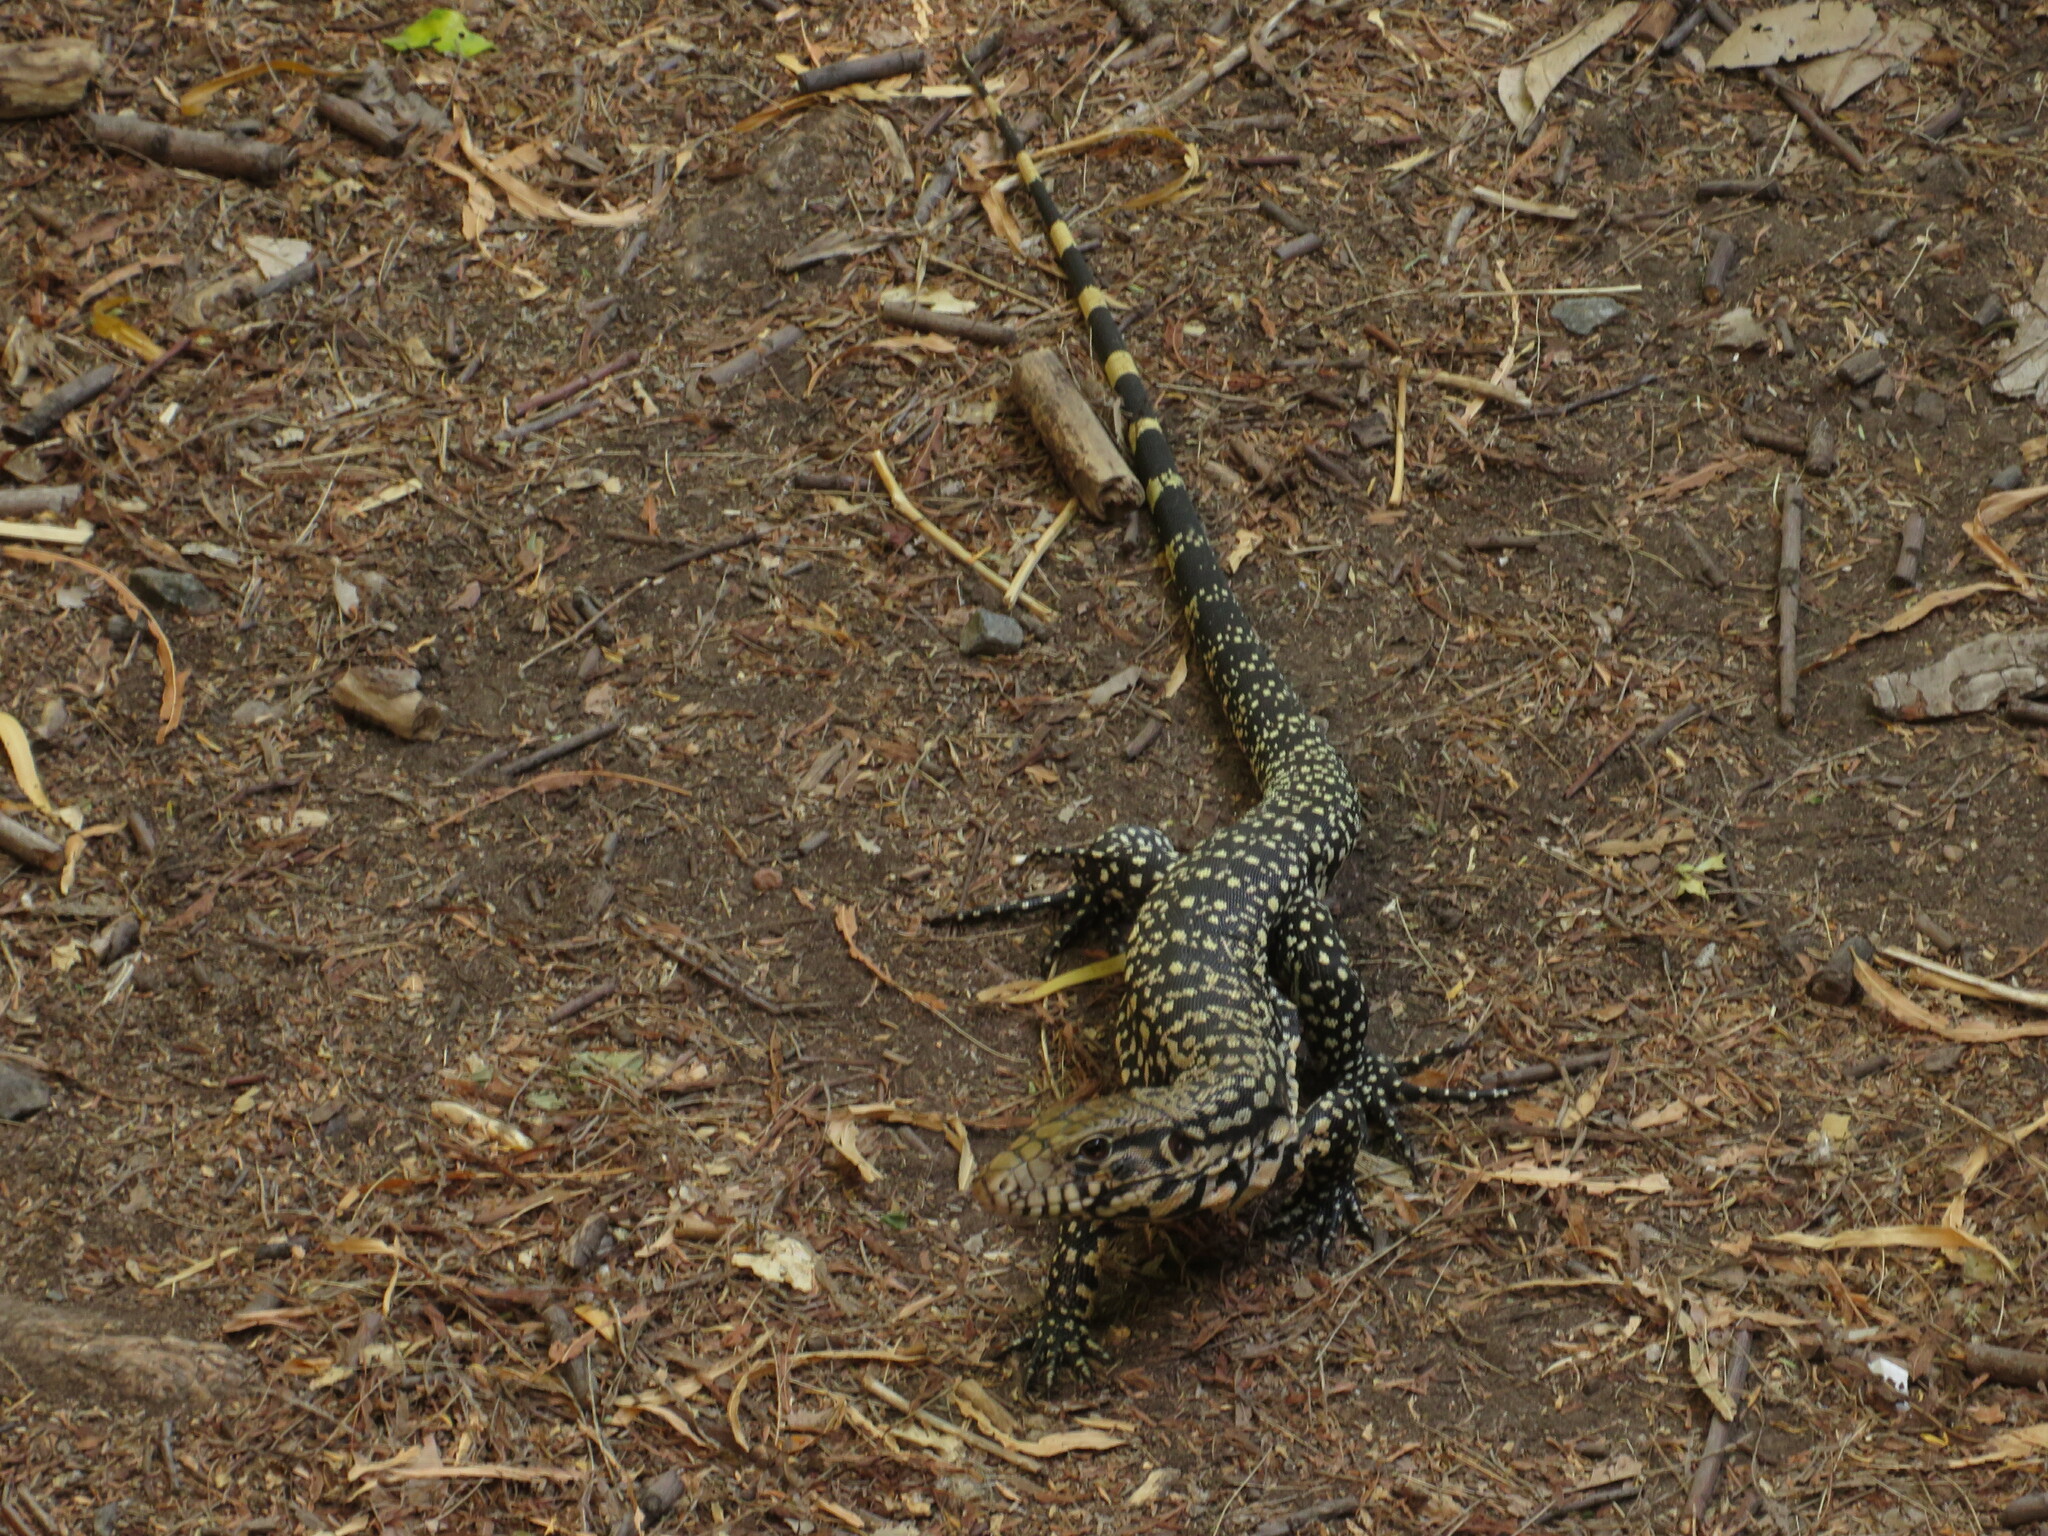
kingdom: Animalia
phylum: Chordata
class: Squamata
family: Teiidae
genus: Salvator
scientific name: Salvator merianae
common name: Argentine black and white tegu
